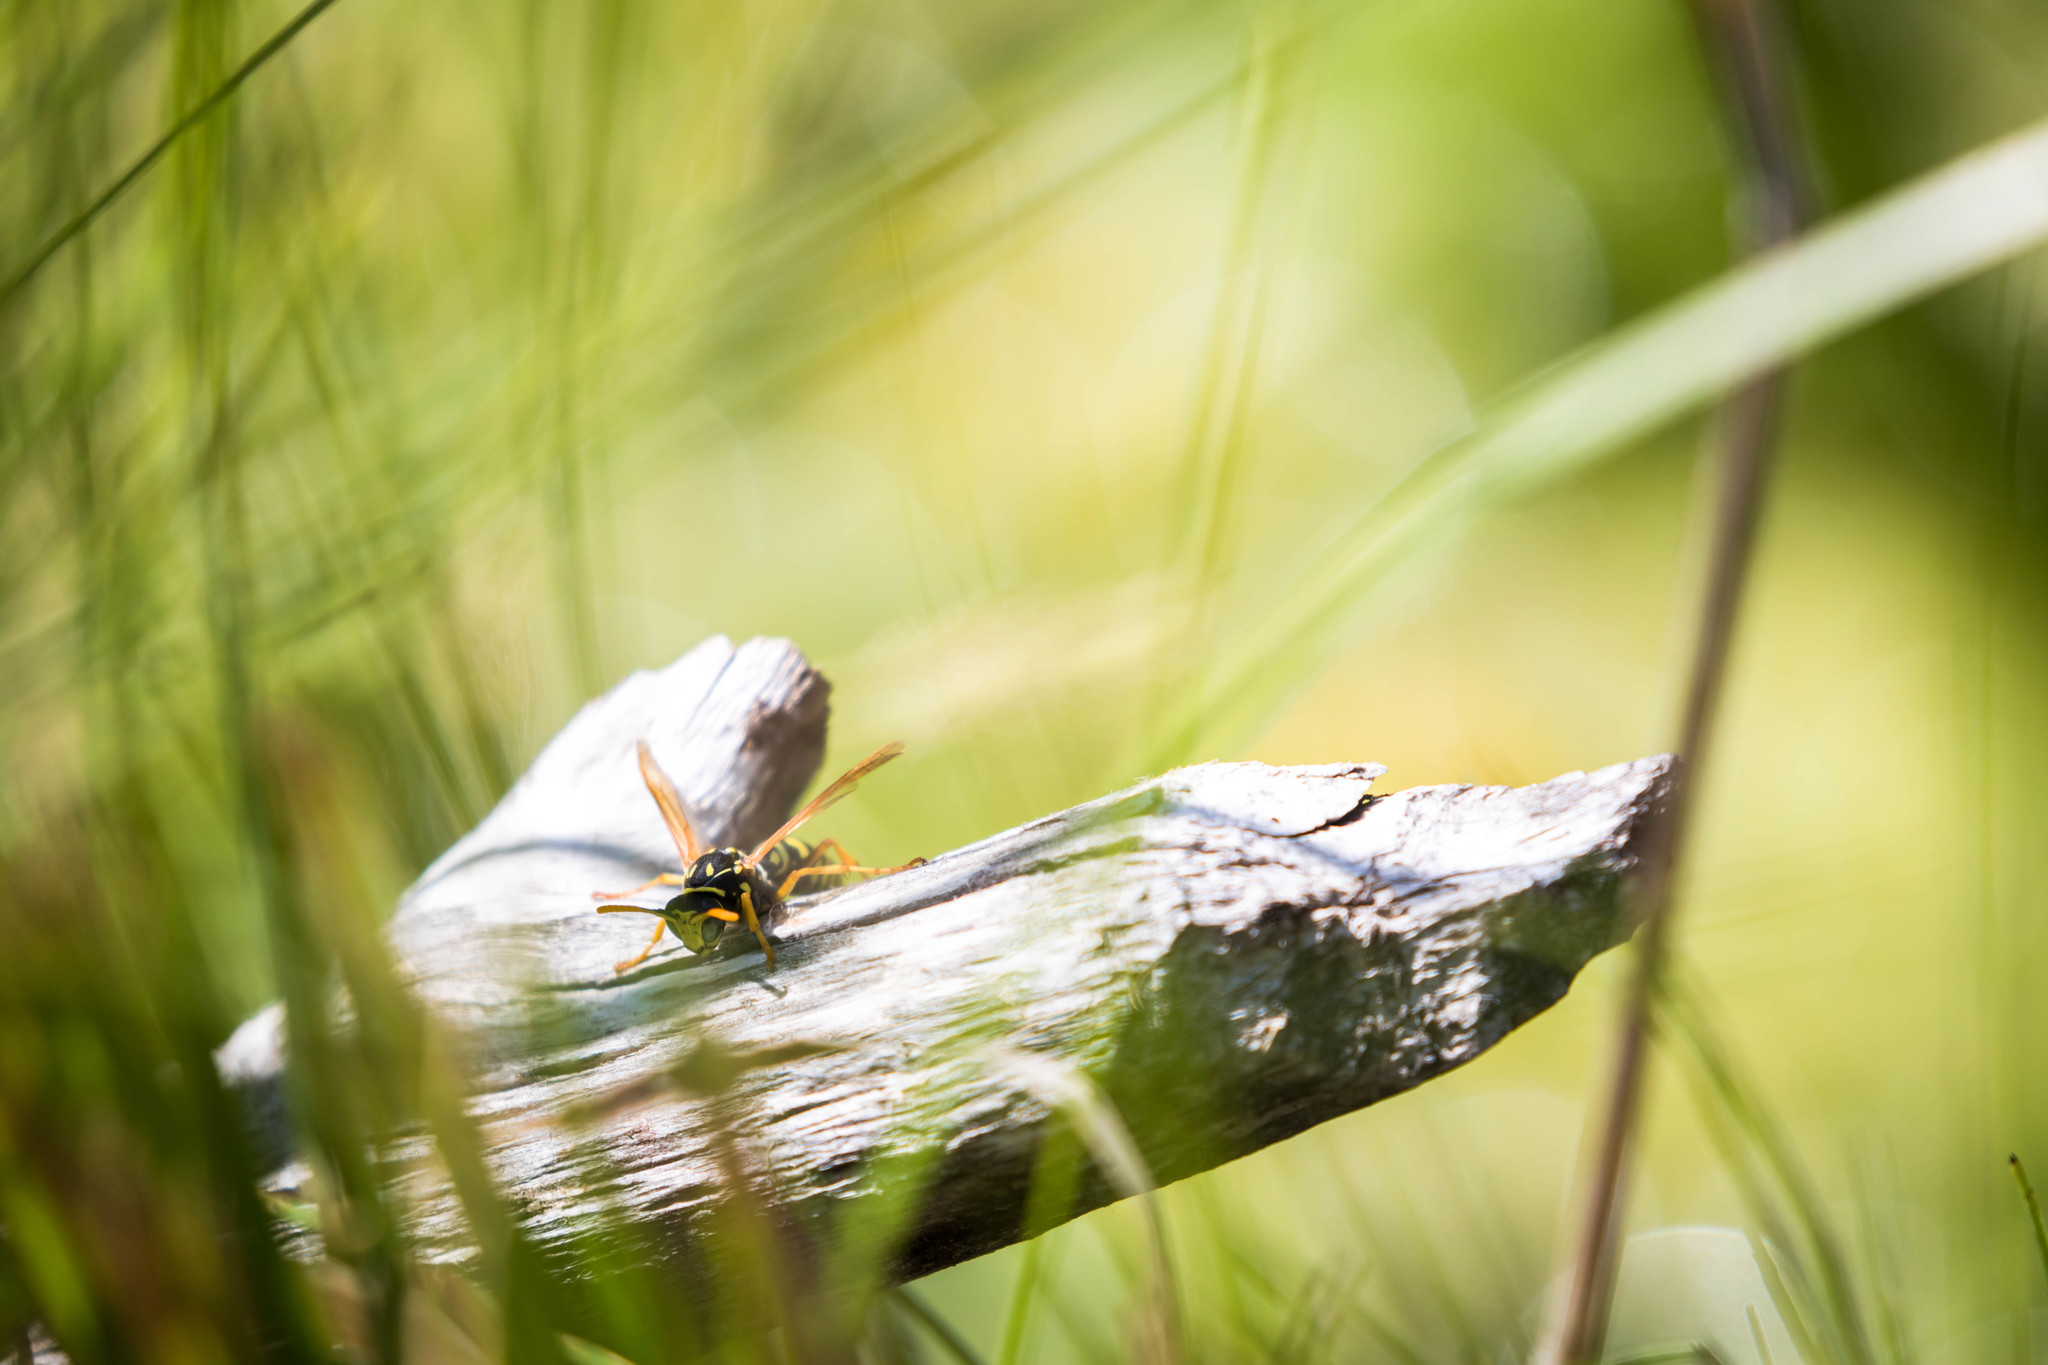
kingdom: Animalia
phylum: Arthropoda
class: Insecta
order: Hymenoptera
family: Eumenidae
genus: Polistes
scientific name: Polistes dominula
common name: Paper wasp
